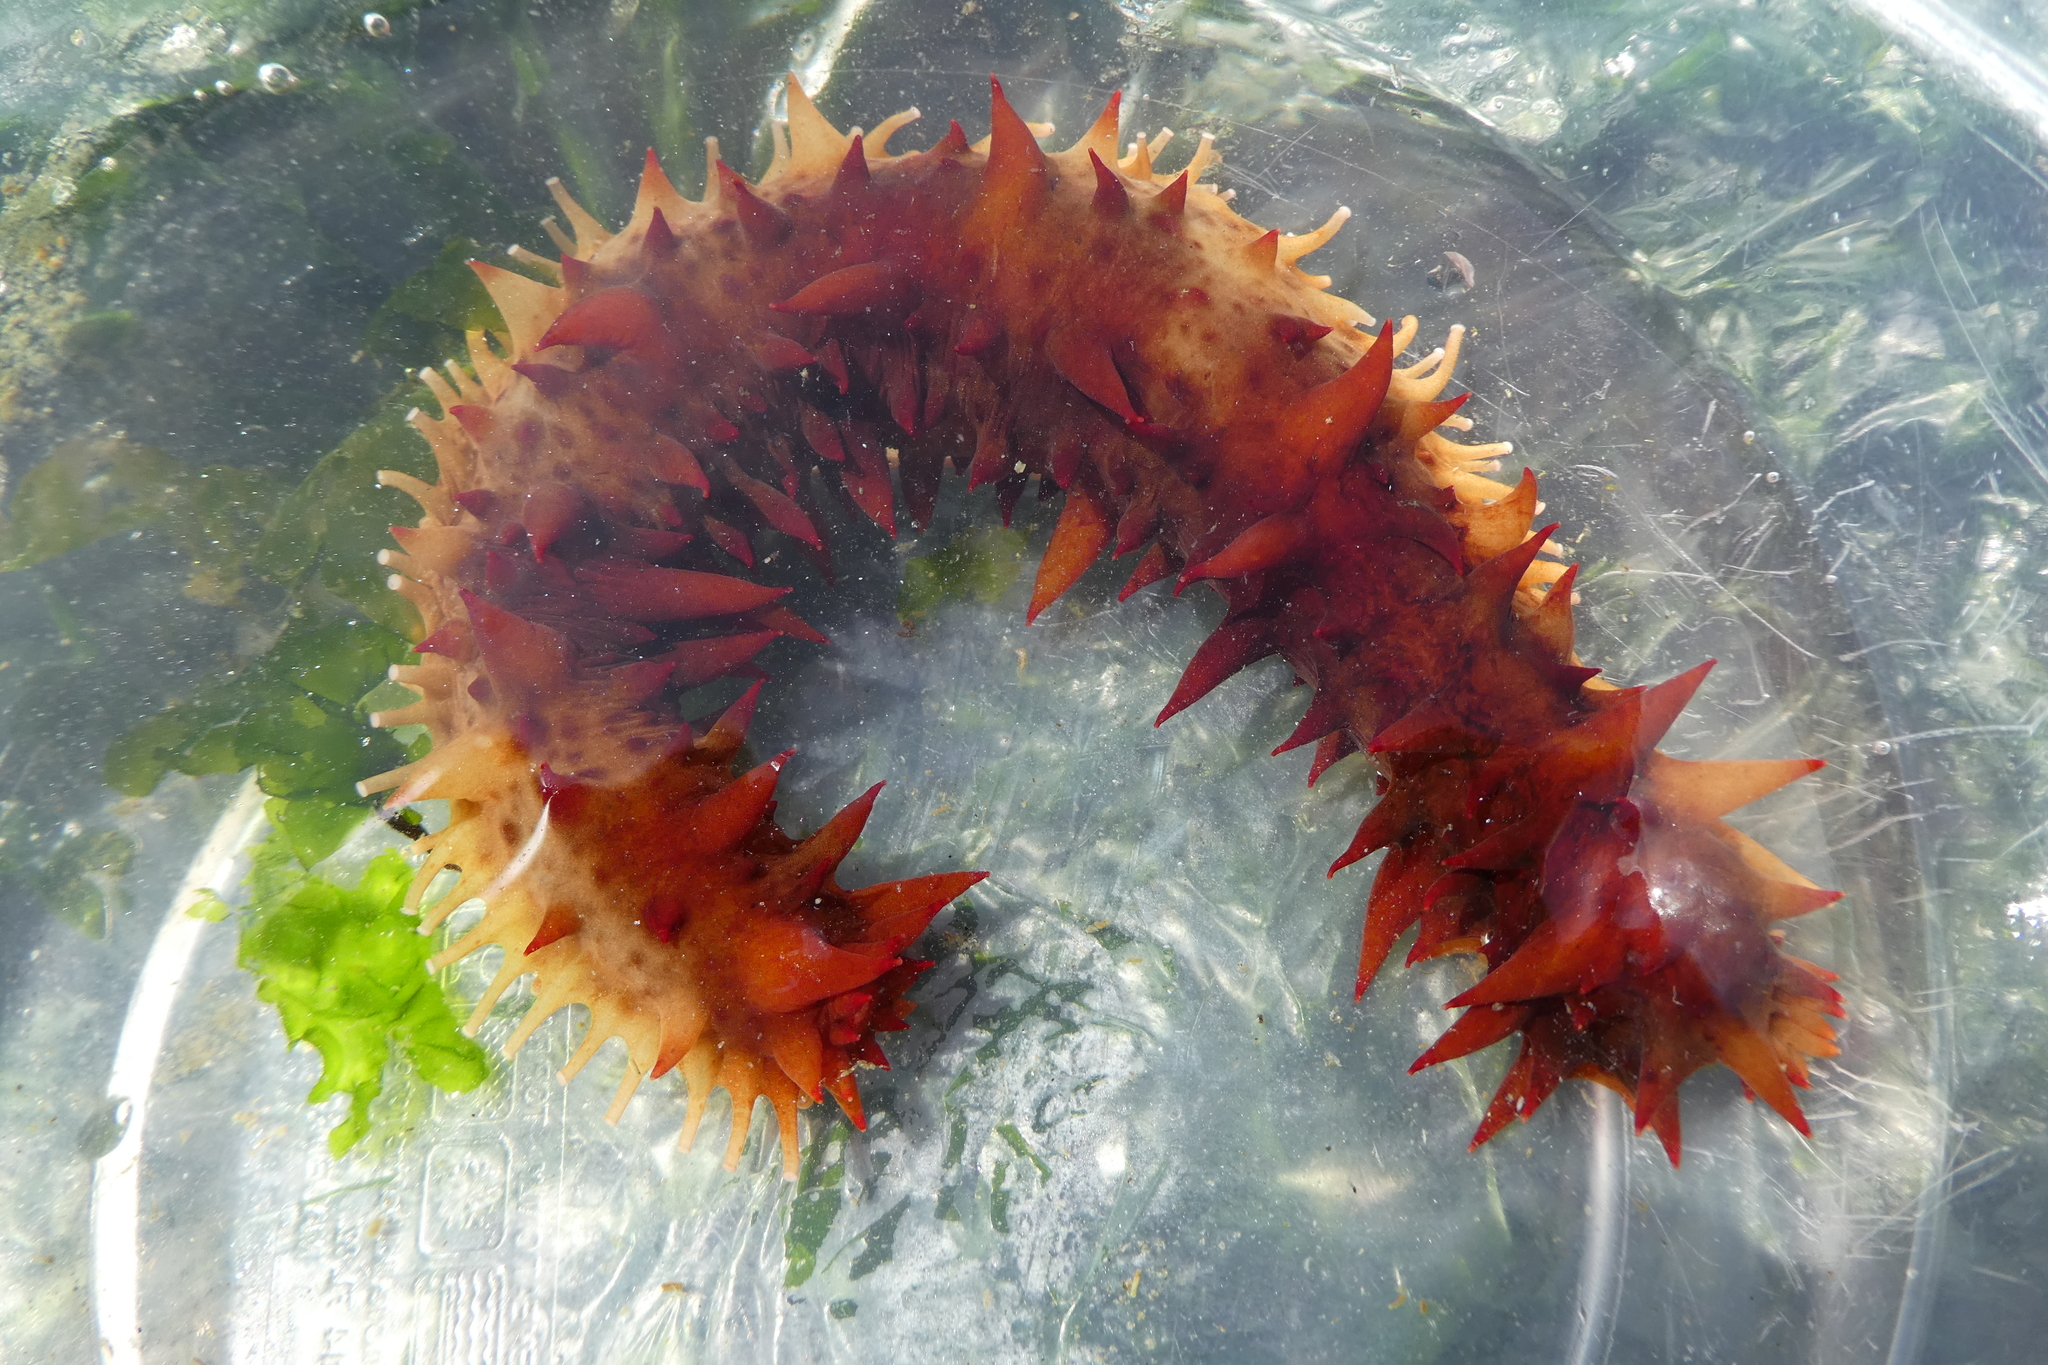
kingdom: Animalia
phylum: Echinodermata
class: Holothuroidea
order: Synallactida
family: Stichopodidae
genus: Apostichopus
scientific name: Apostichopus californicus
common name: California sea cucumber
